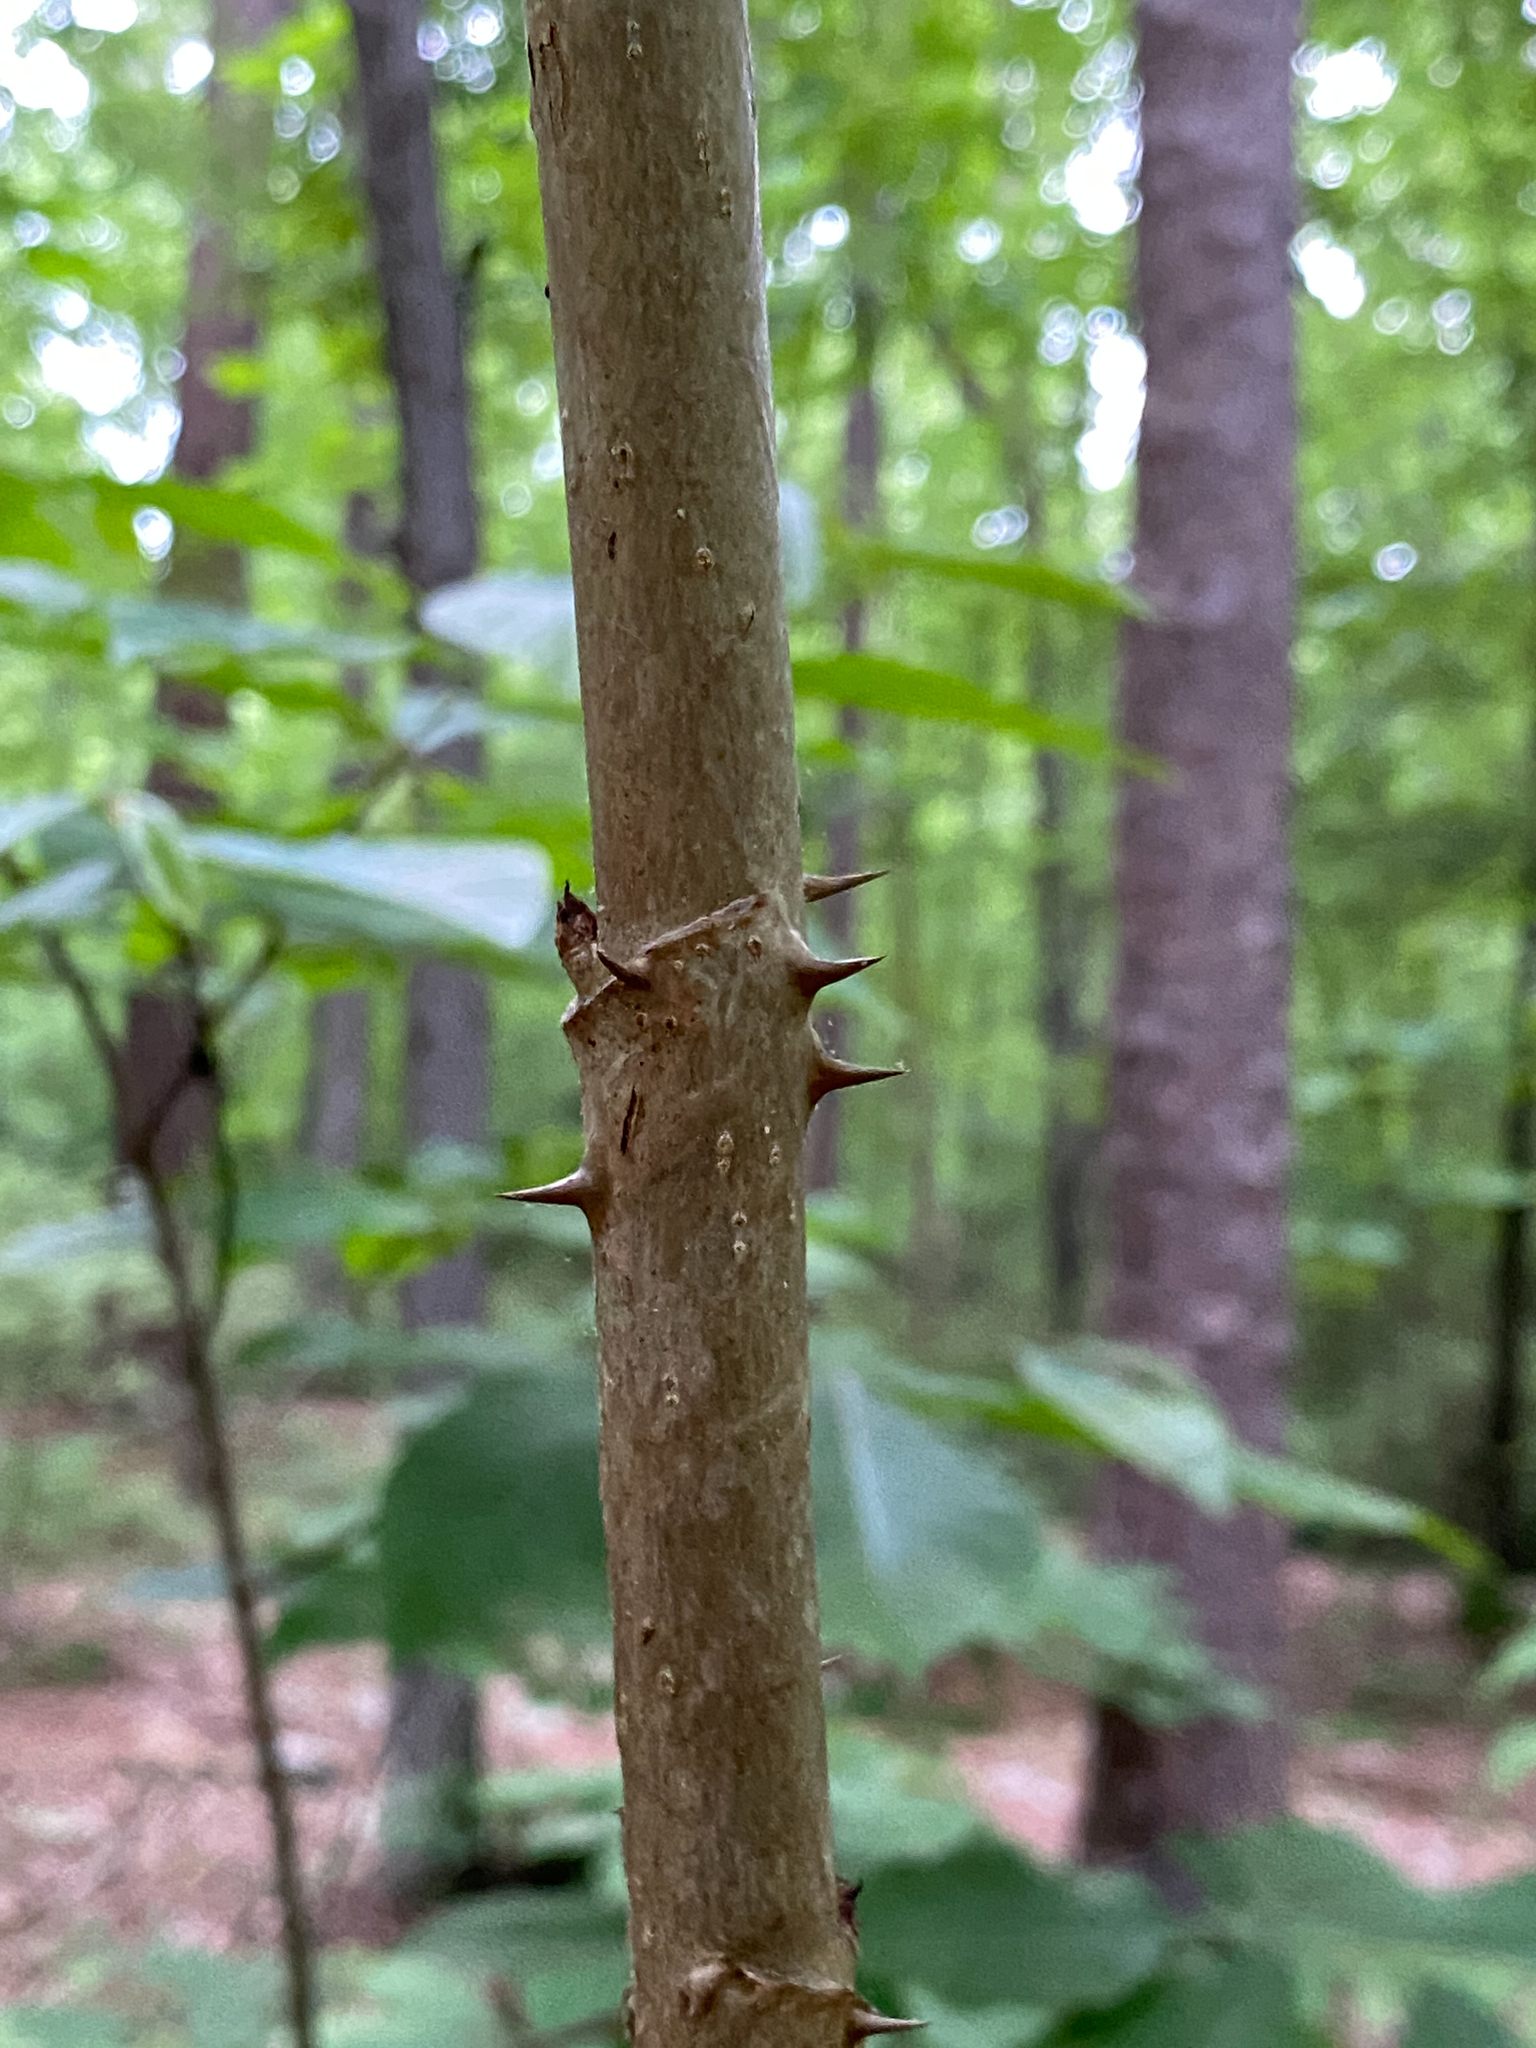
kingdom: Plantae
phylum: Tracheophyta
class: Magnoliopsida
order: Apiales
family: Araliaceae
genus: Aralia
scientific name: Aralia spinosa
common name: Hercules'-club
